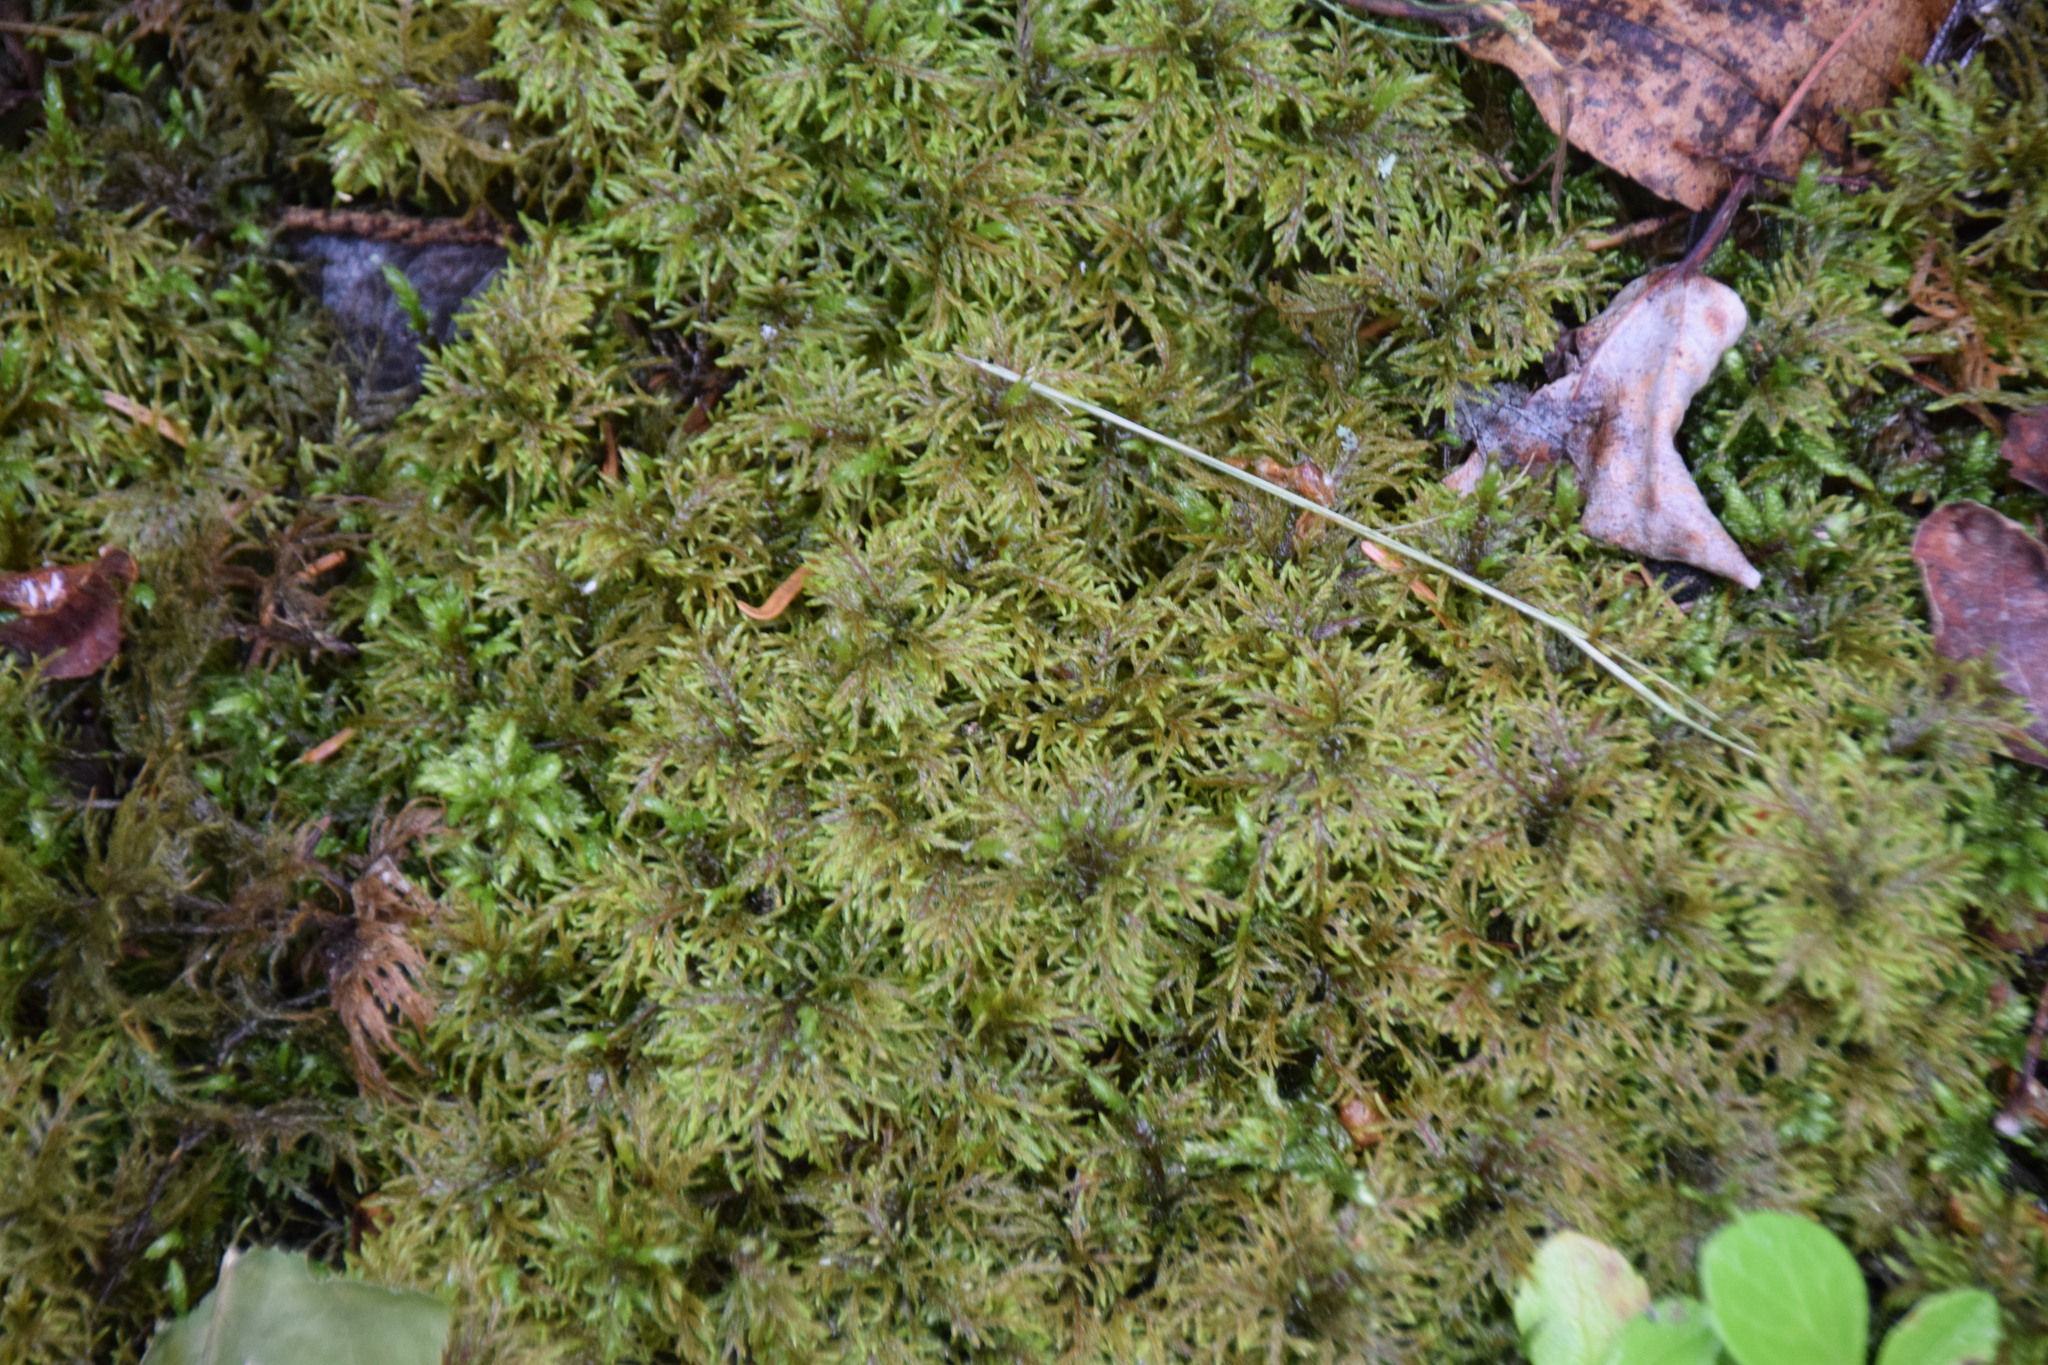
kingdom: Plantae
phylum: Bryophyta
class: Bryopsida
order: Hypnales
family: Hylocomiaceae
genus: Hylocomium
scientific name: Hylocomium splendens
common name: Stairstep moss
